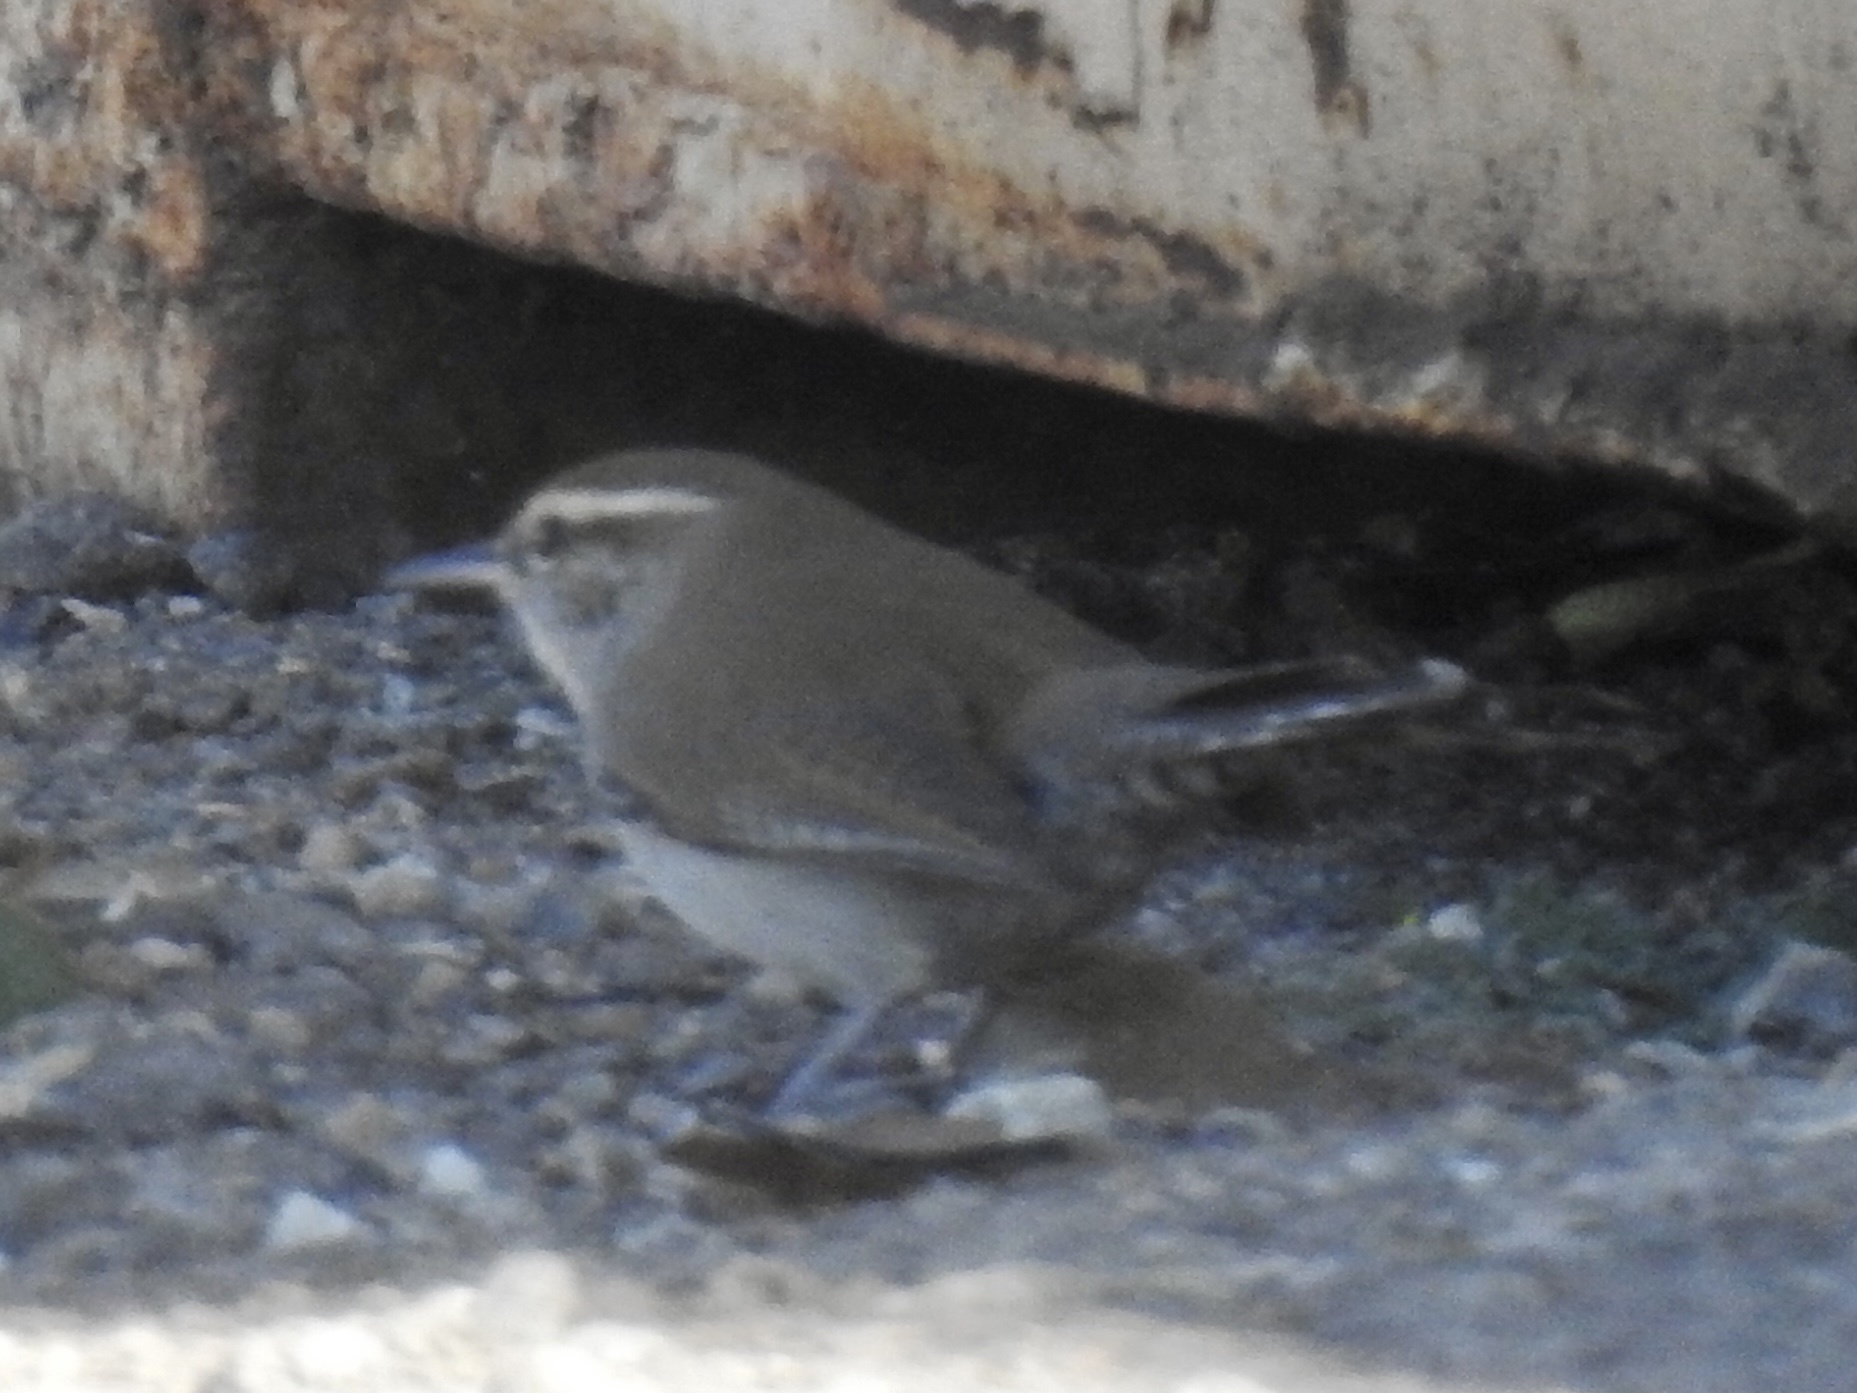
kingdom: Animalia
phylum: Chordata
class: Aves
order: Passeriformes
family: Troglodytidae
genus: Thryomanes
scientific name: Thryomanes bewickii
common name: Bewick's wren
